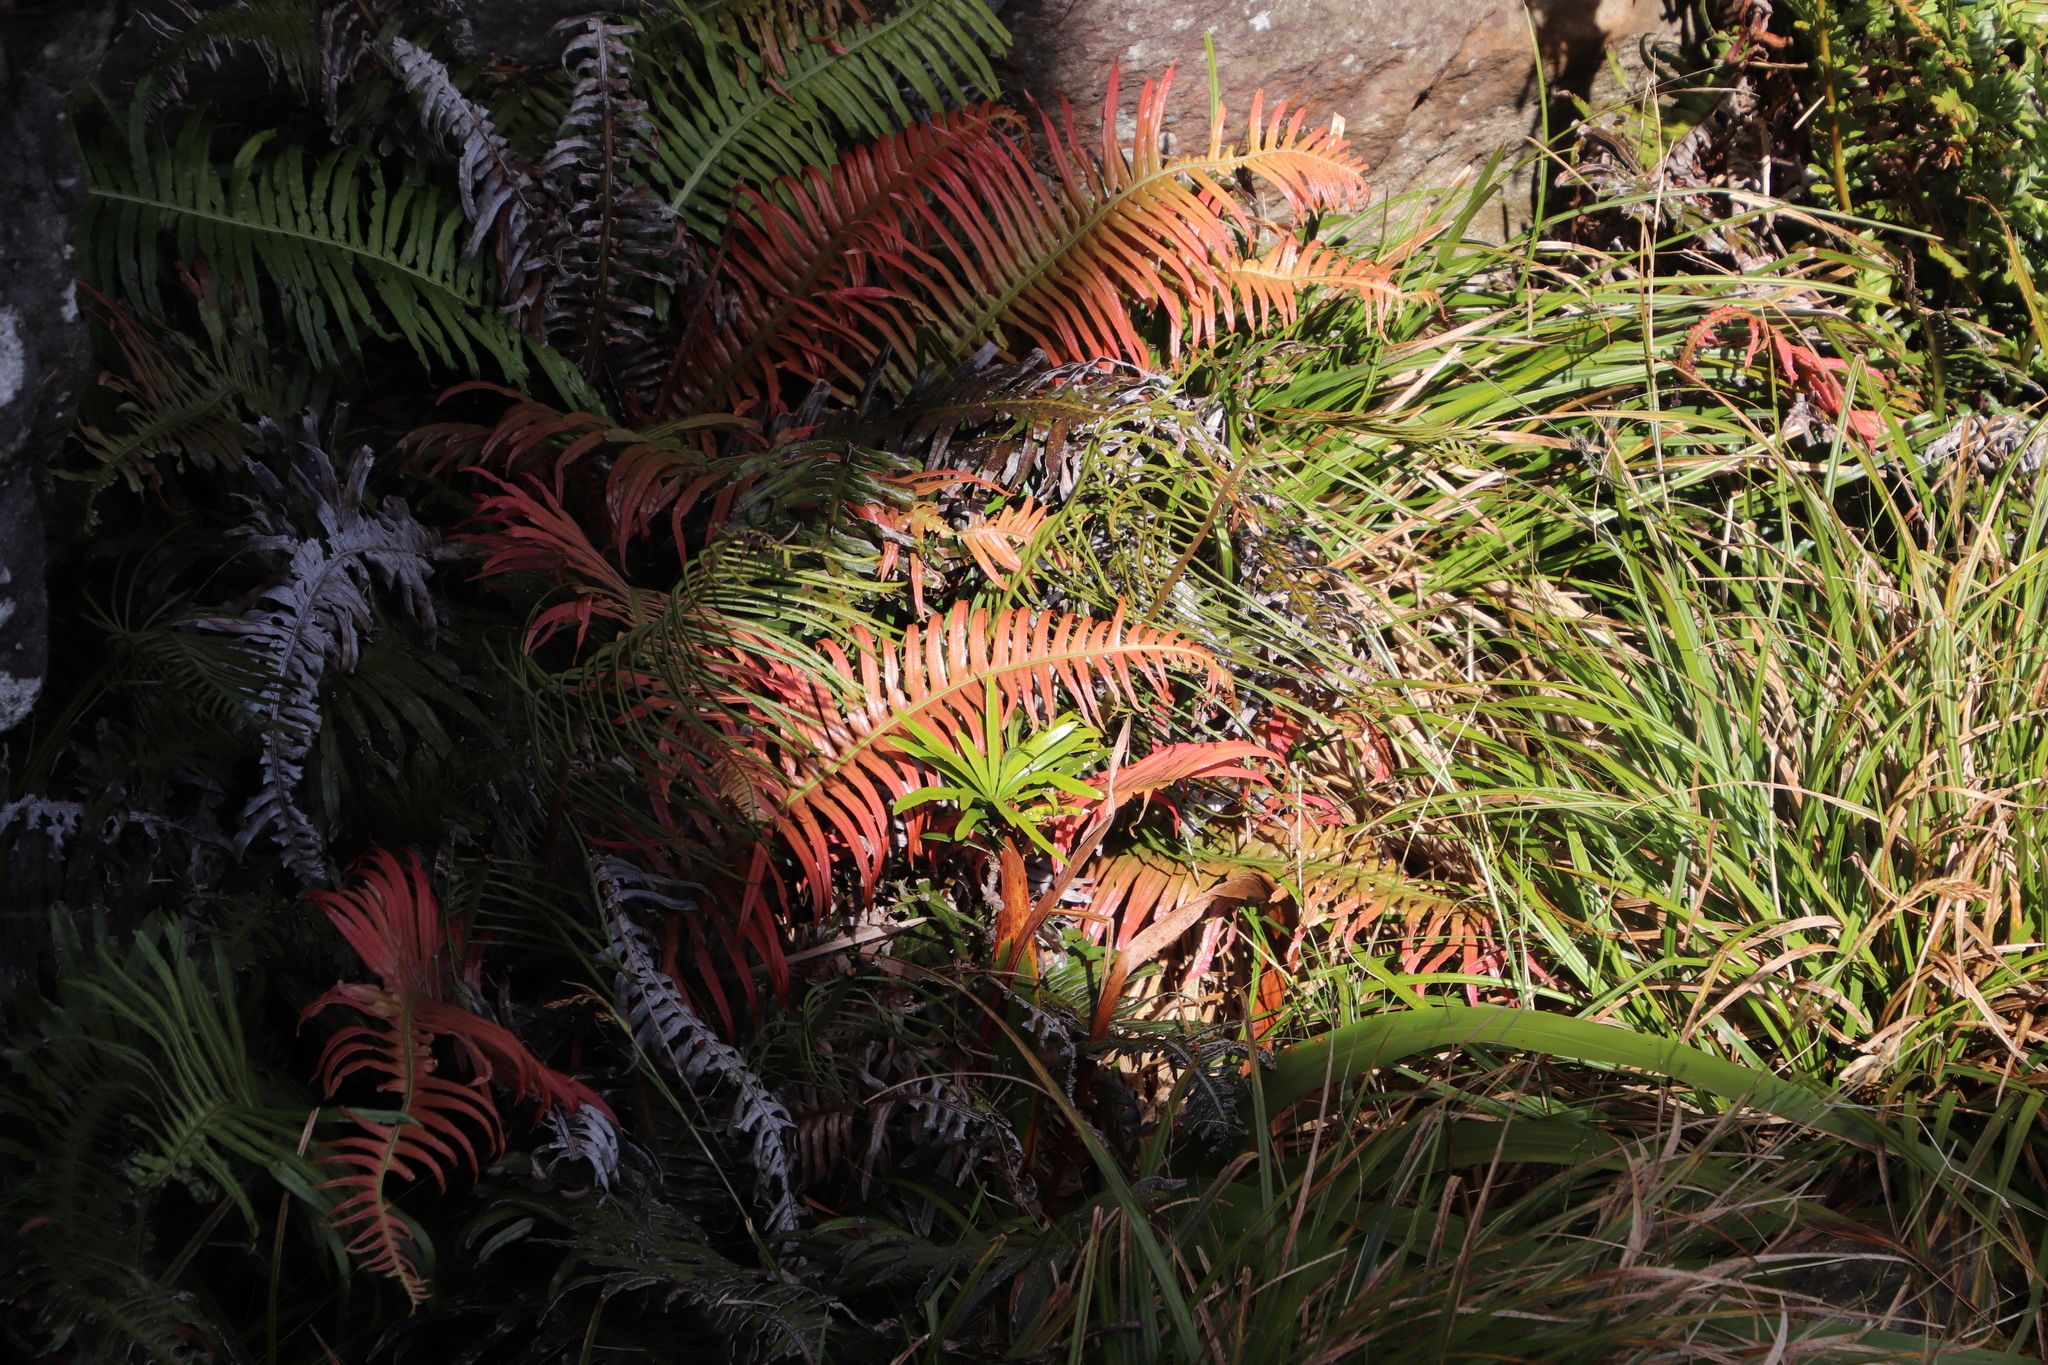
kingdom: Plantae
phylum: Tracheophyta
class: Polypodiopsida
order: Polypodiales
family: Blechnaceae
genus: Lomaridium
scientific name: Lomaridium attenuatum
